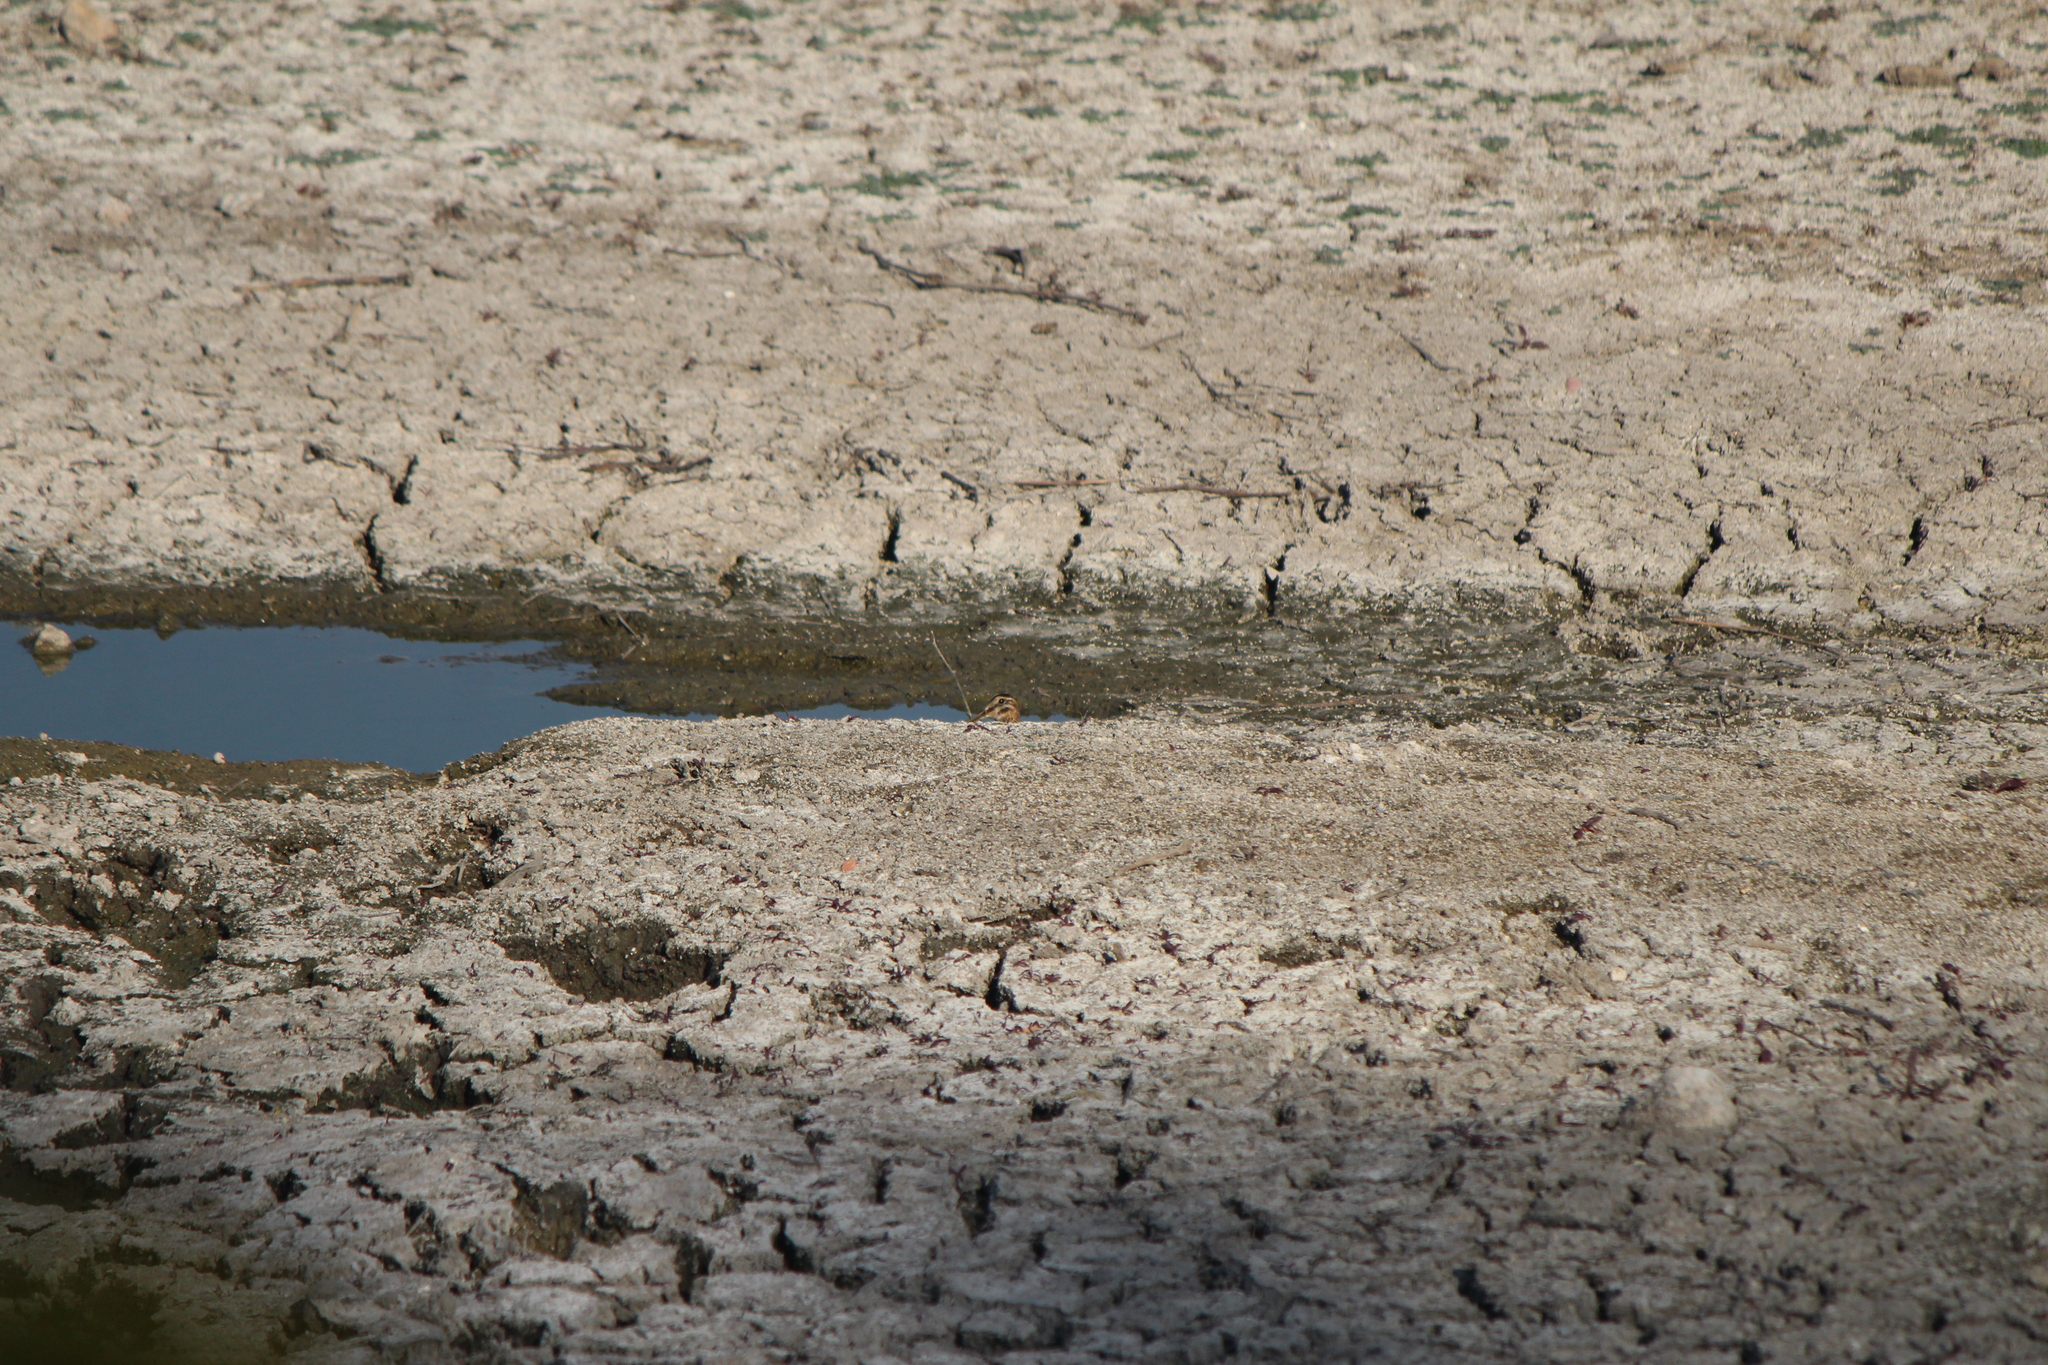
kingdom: Animalia
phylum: Chordata
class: Aves
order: Charadriiformes
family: Scolopacidae
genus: Gallinago
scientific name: Gallinago delicata
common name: Wilson's snipe
